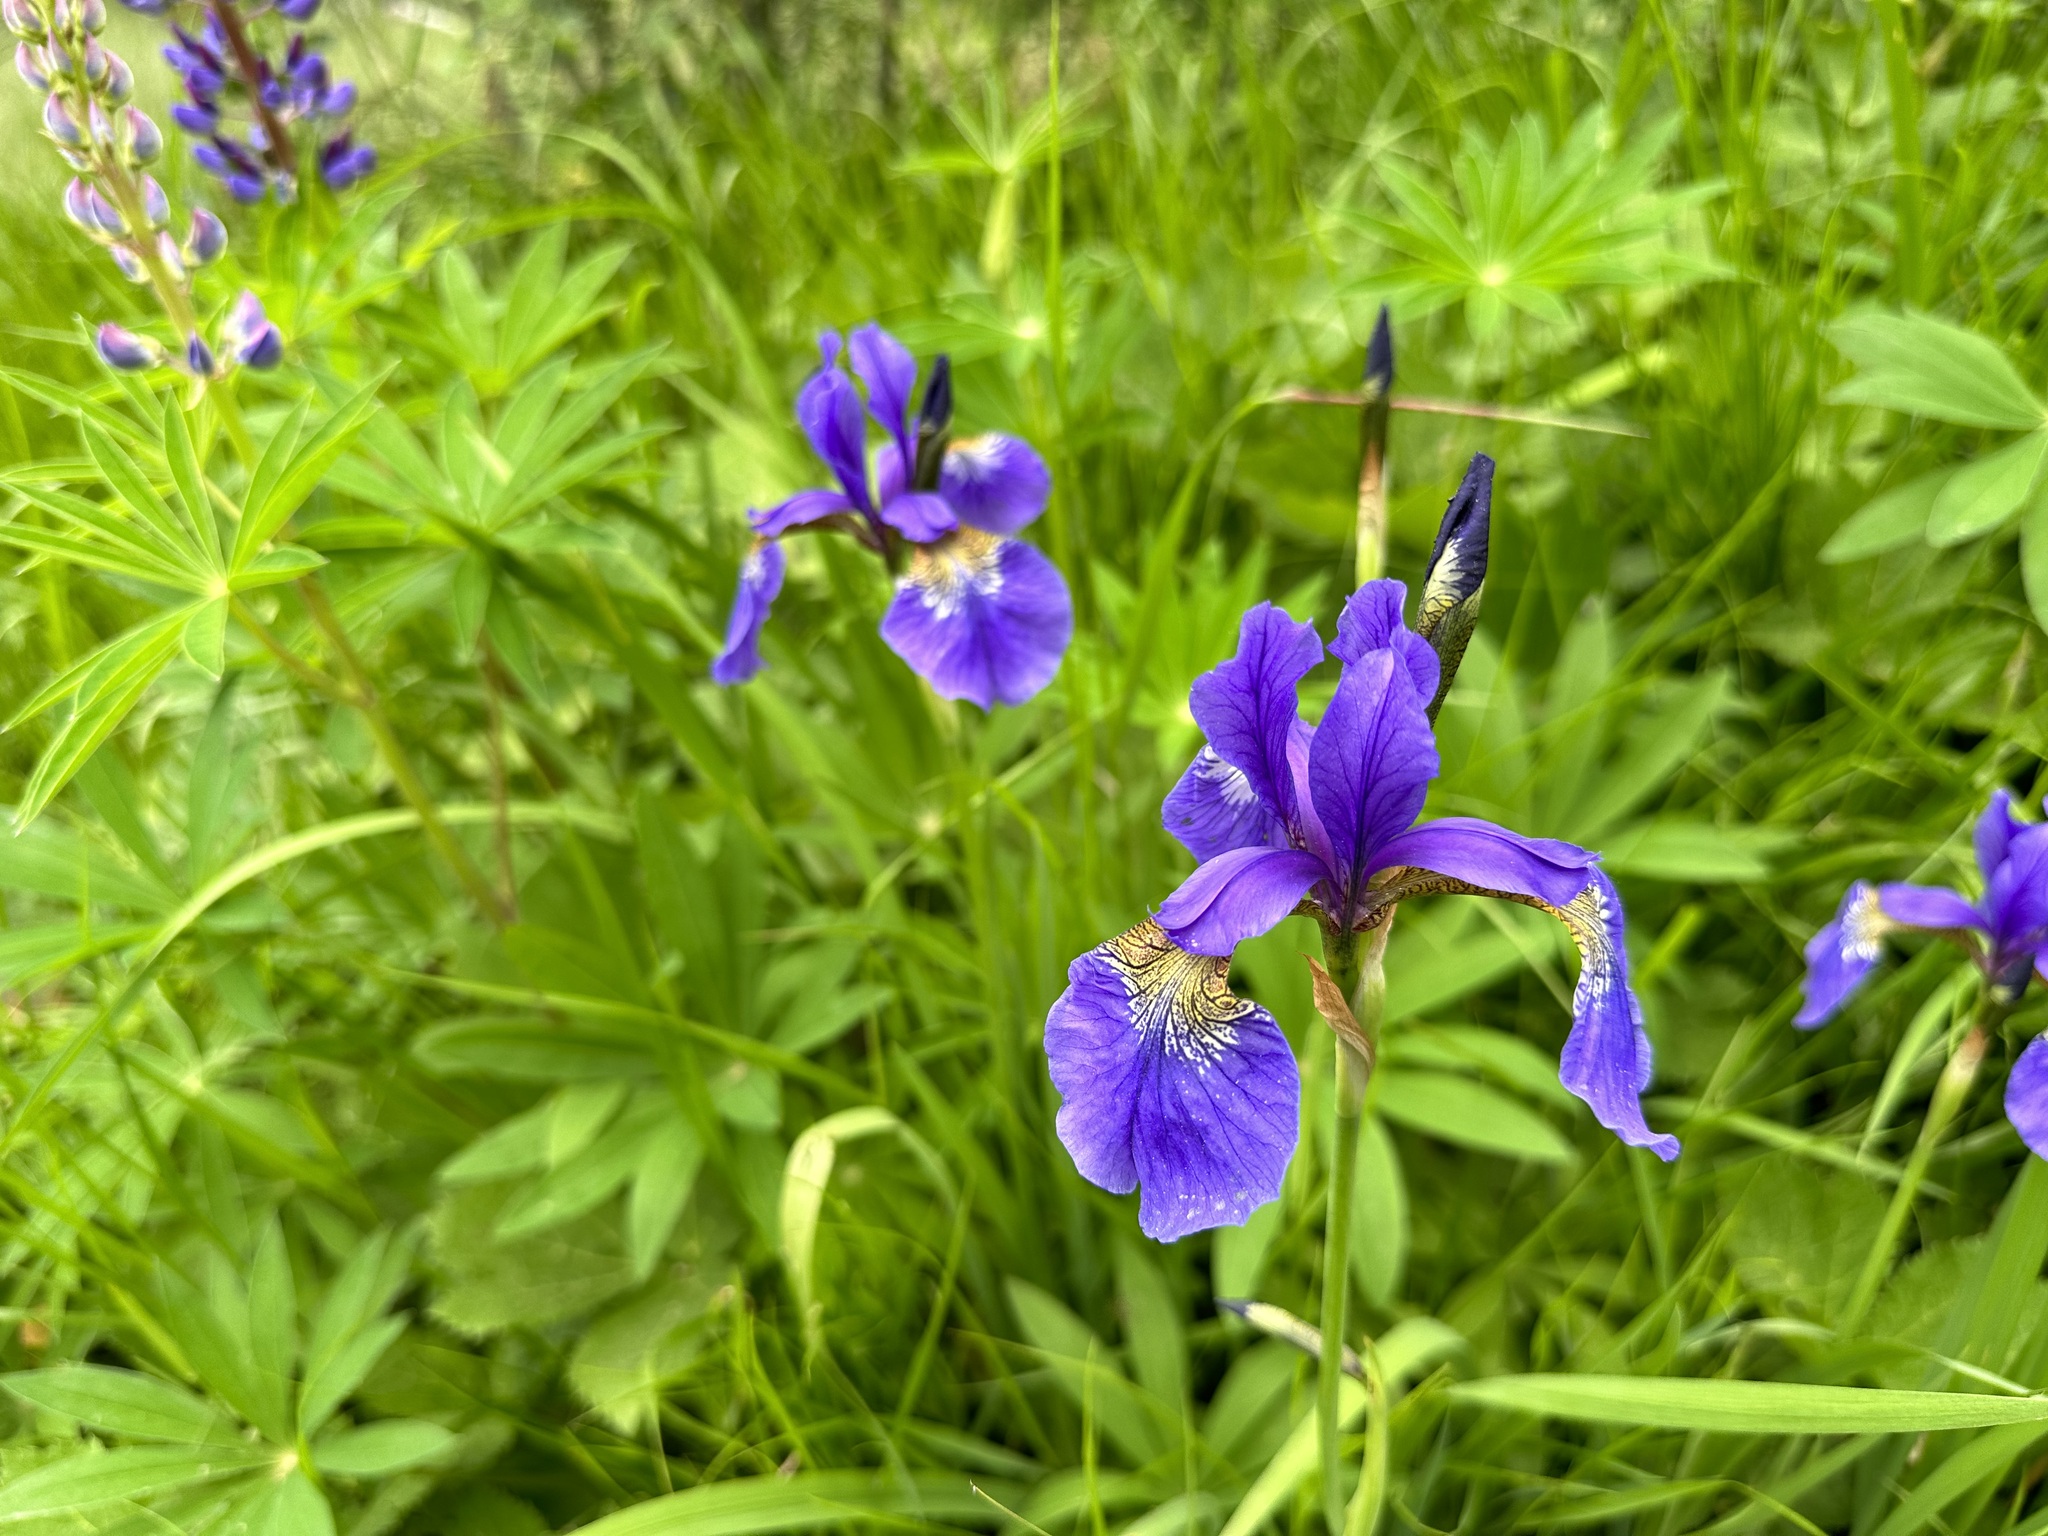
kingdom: Plantae
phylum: Tracheophyta
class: Liliopsida
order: Asparagales
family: Iridaceae
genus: Iris
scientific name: Iris sanguinea
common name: Blood iris
